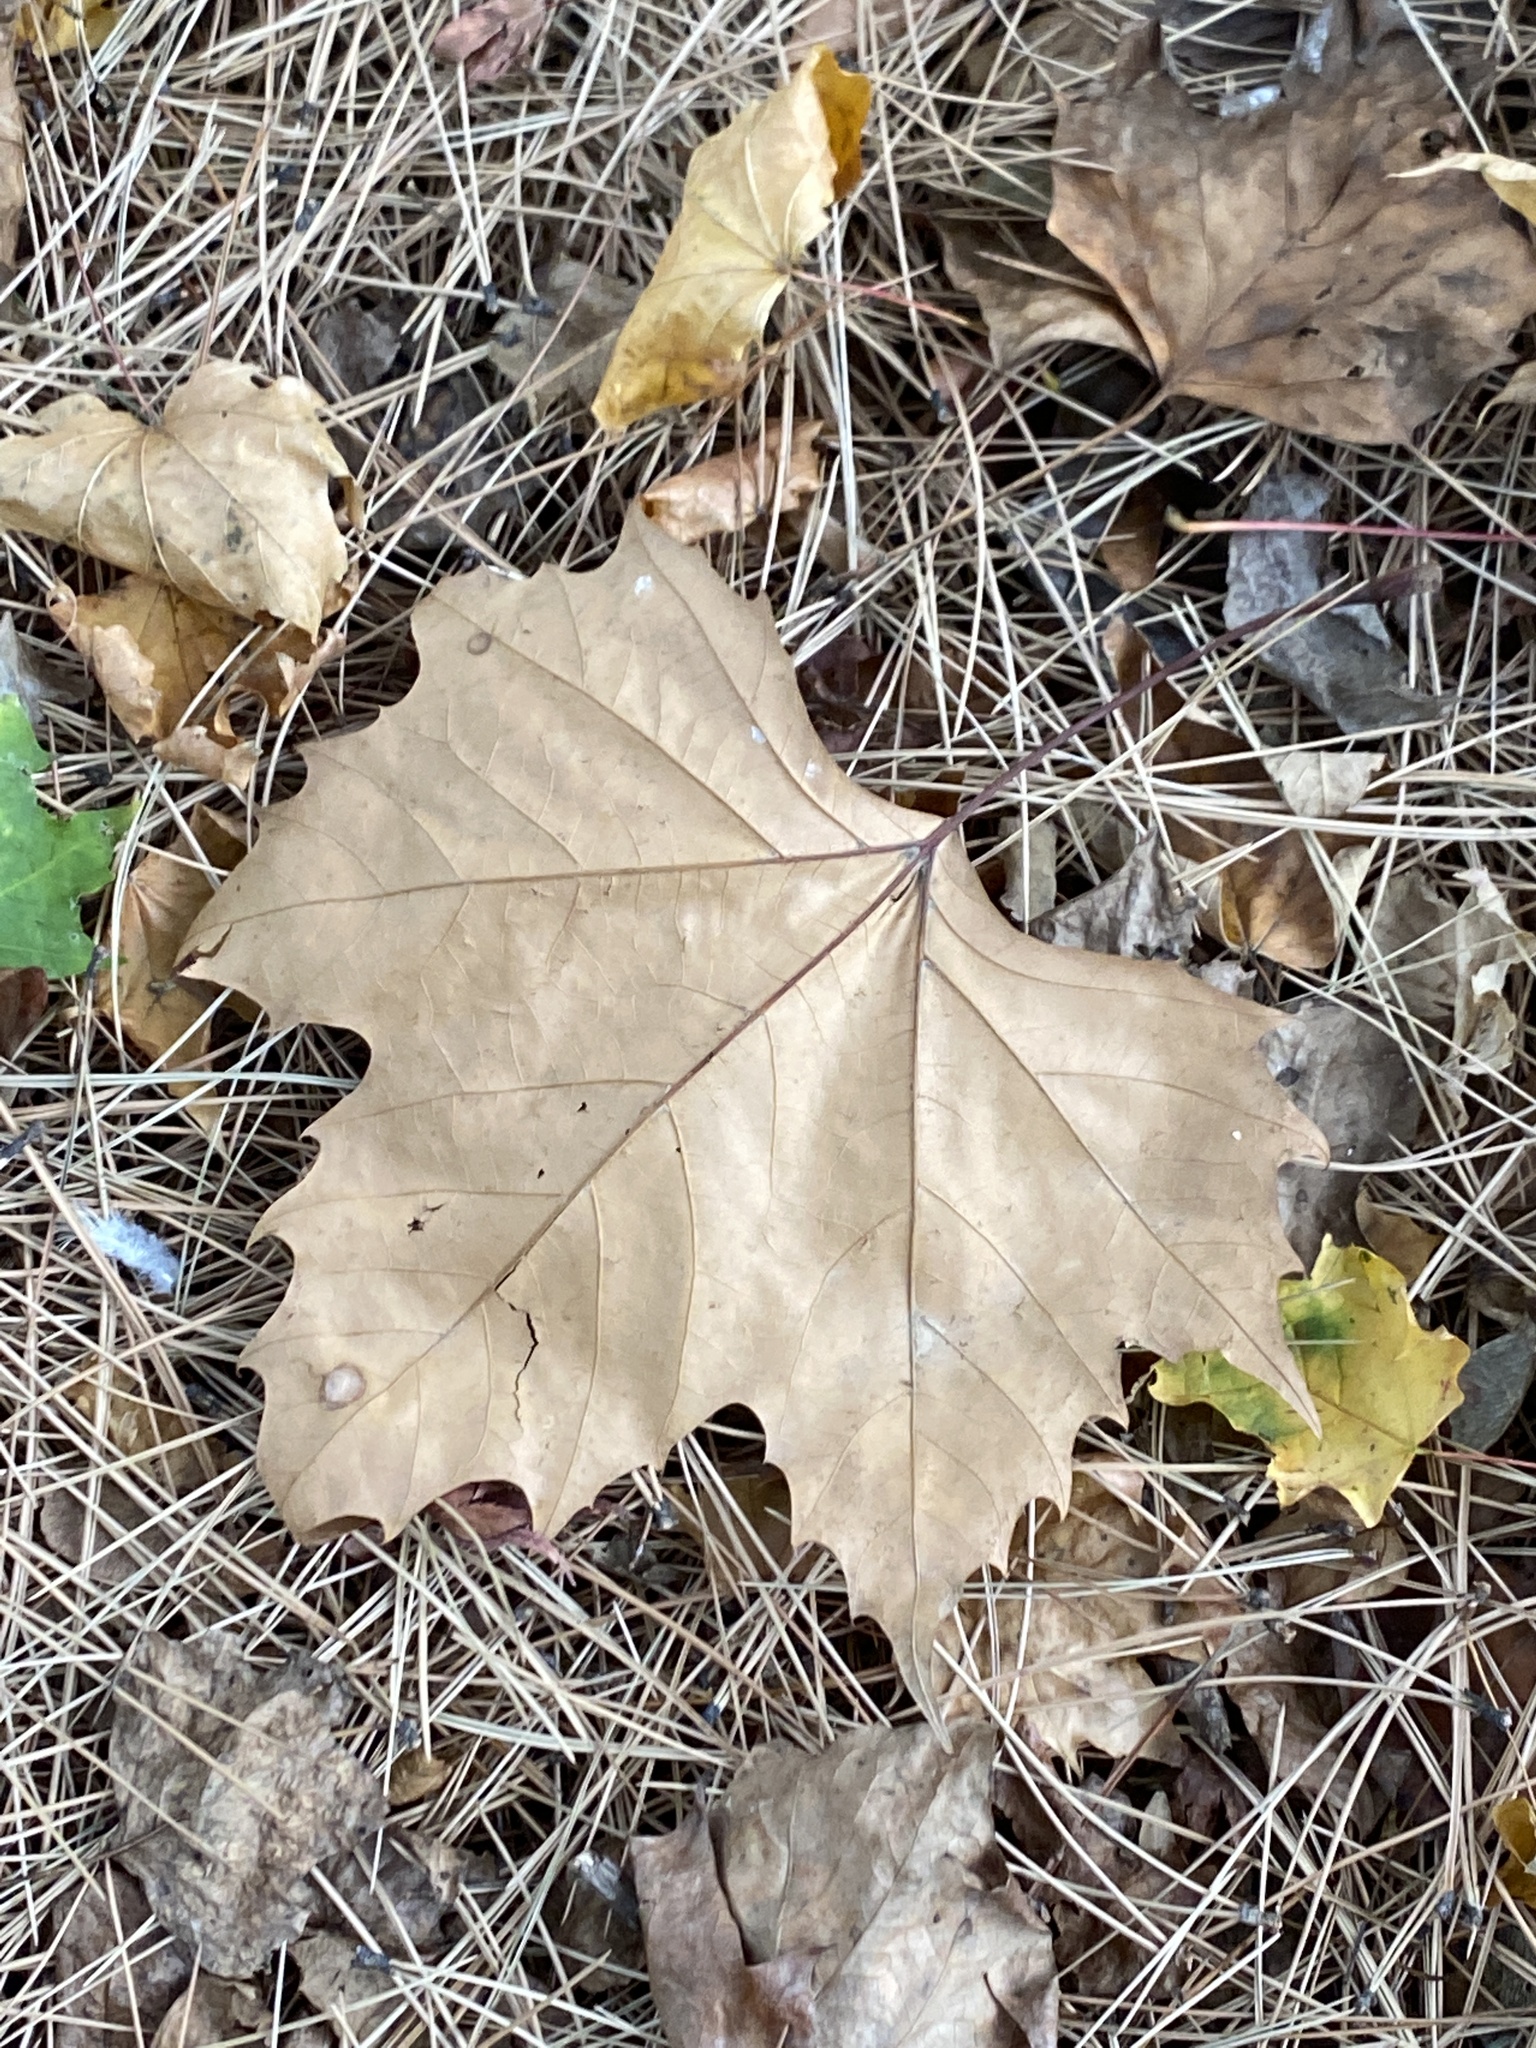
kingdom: Plantae
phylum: Tracheophyta
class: Magnoliopsida
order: Proteales
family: Platanaceae
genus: Platanus
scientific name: Platanus occidentalis
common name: American sycamore
